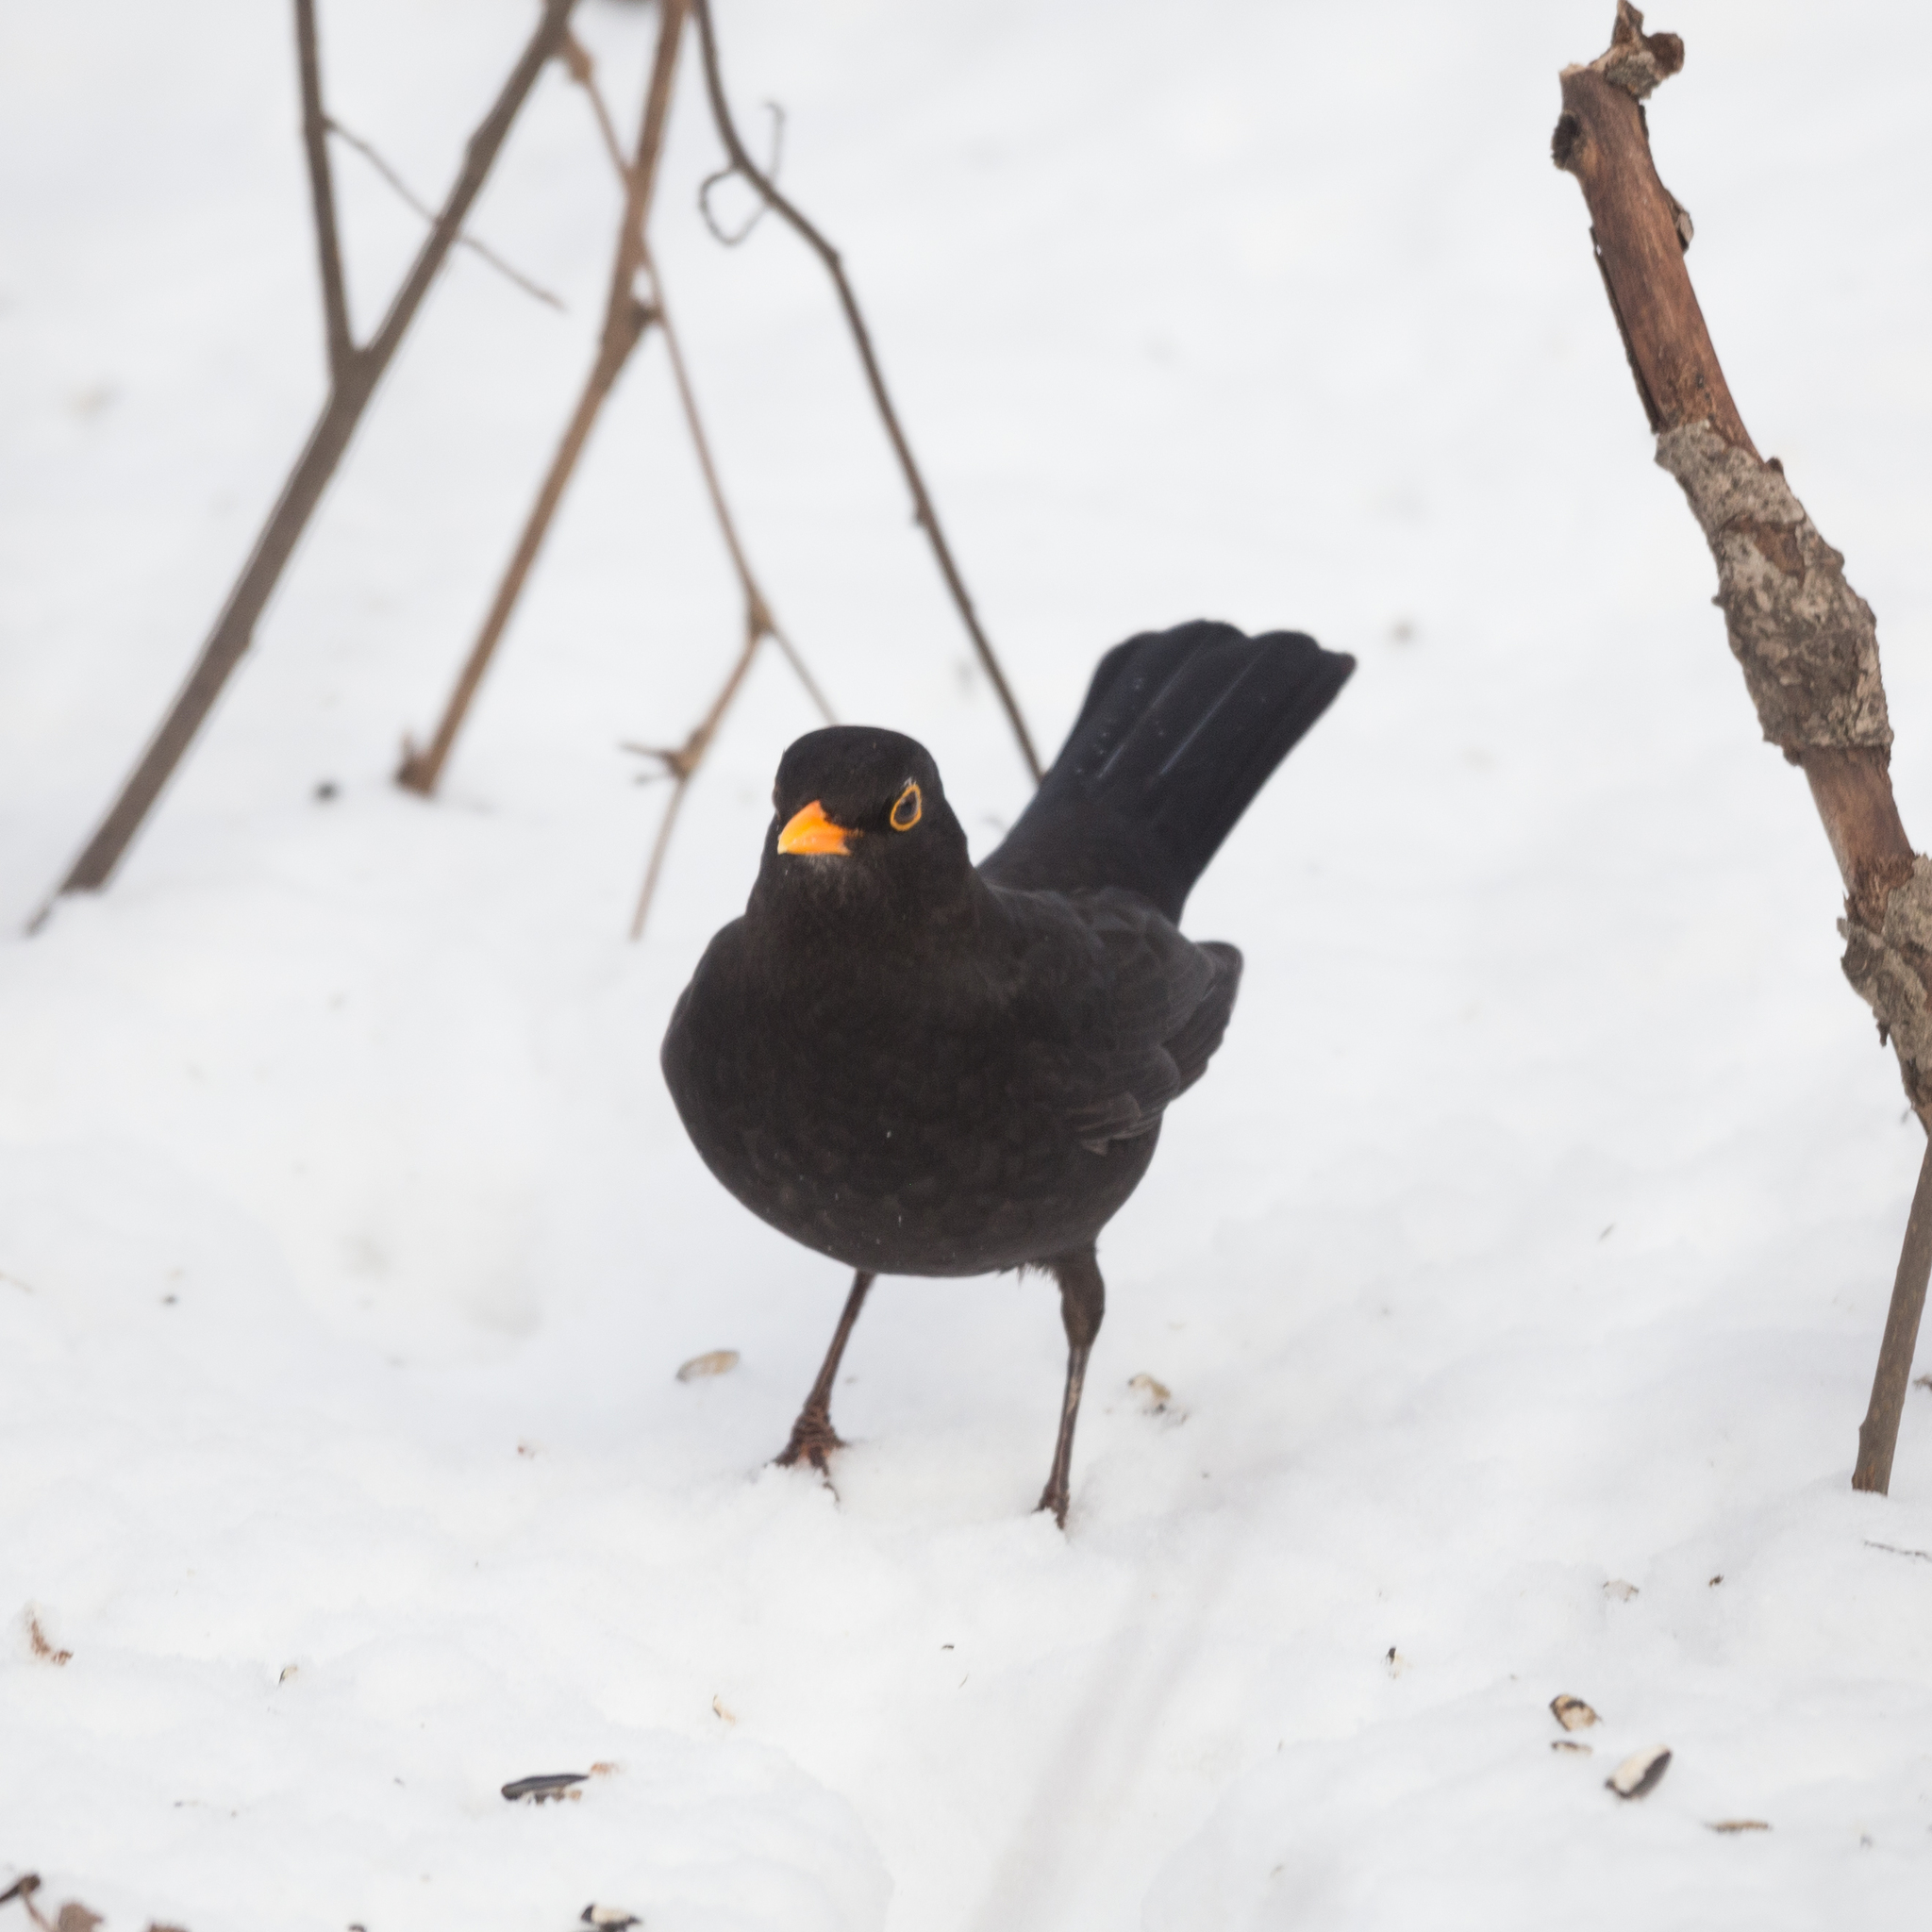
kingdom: Animalia
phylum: Chordata
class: Aves
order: Passeriformes
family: Turdidae
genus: Turdus
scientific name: Turdus merula
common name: Common blackbird
